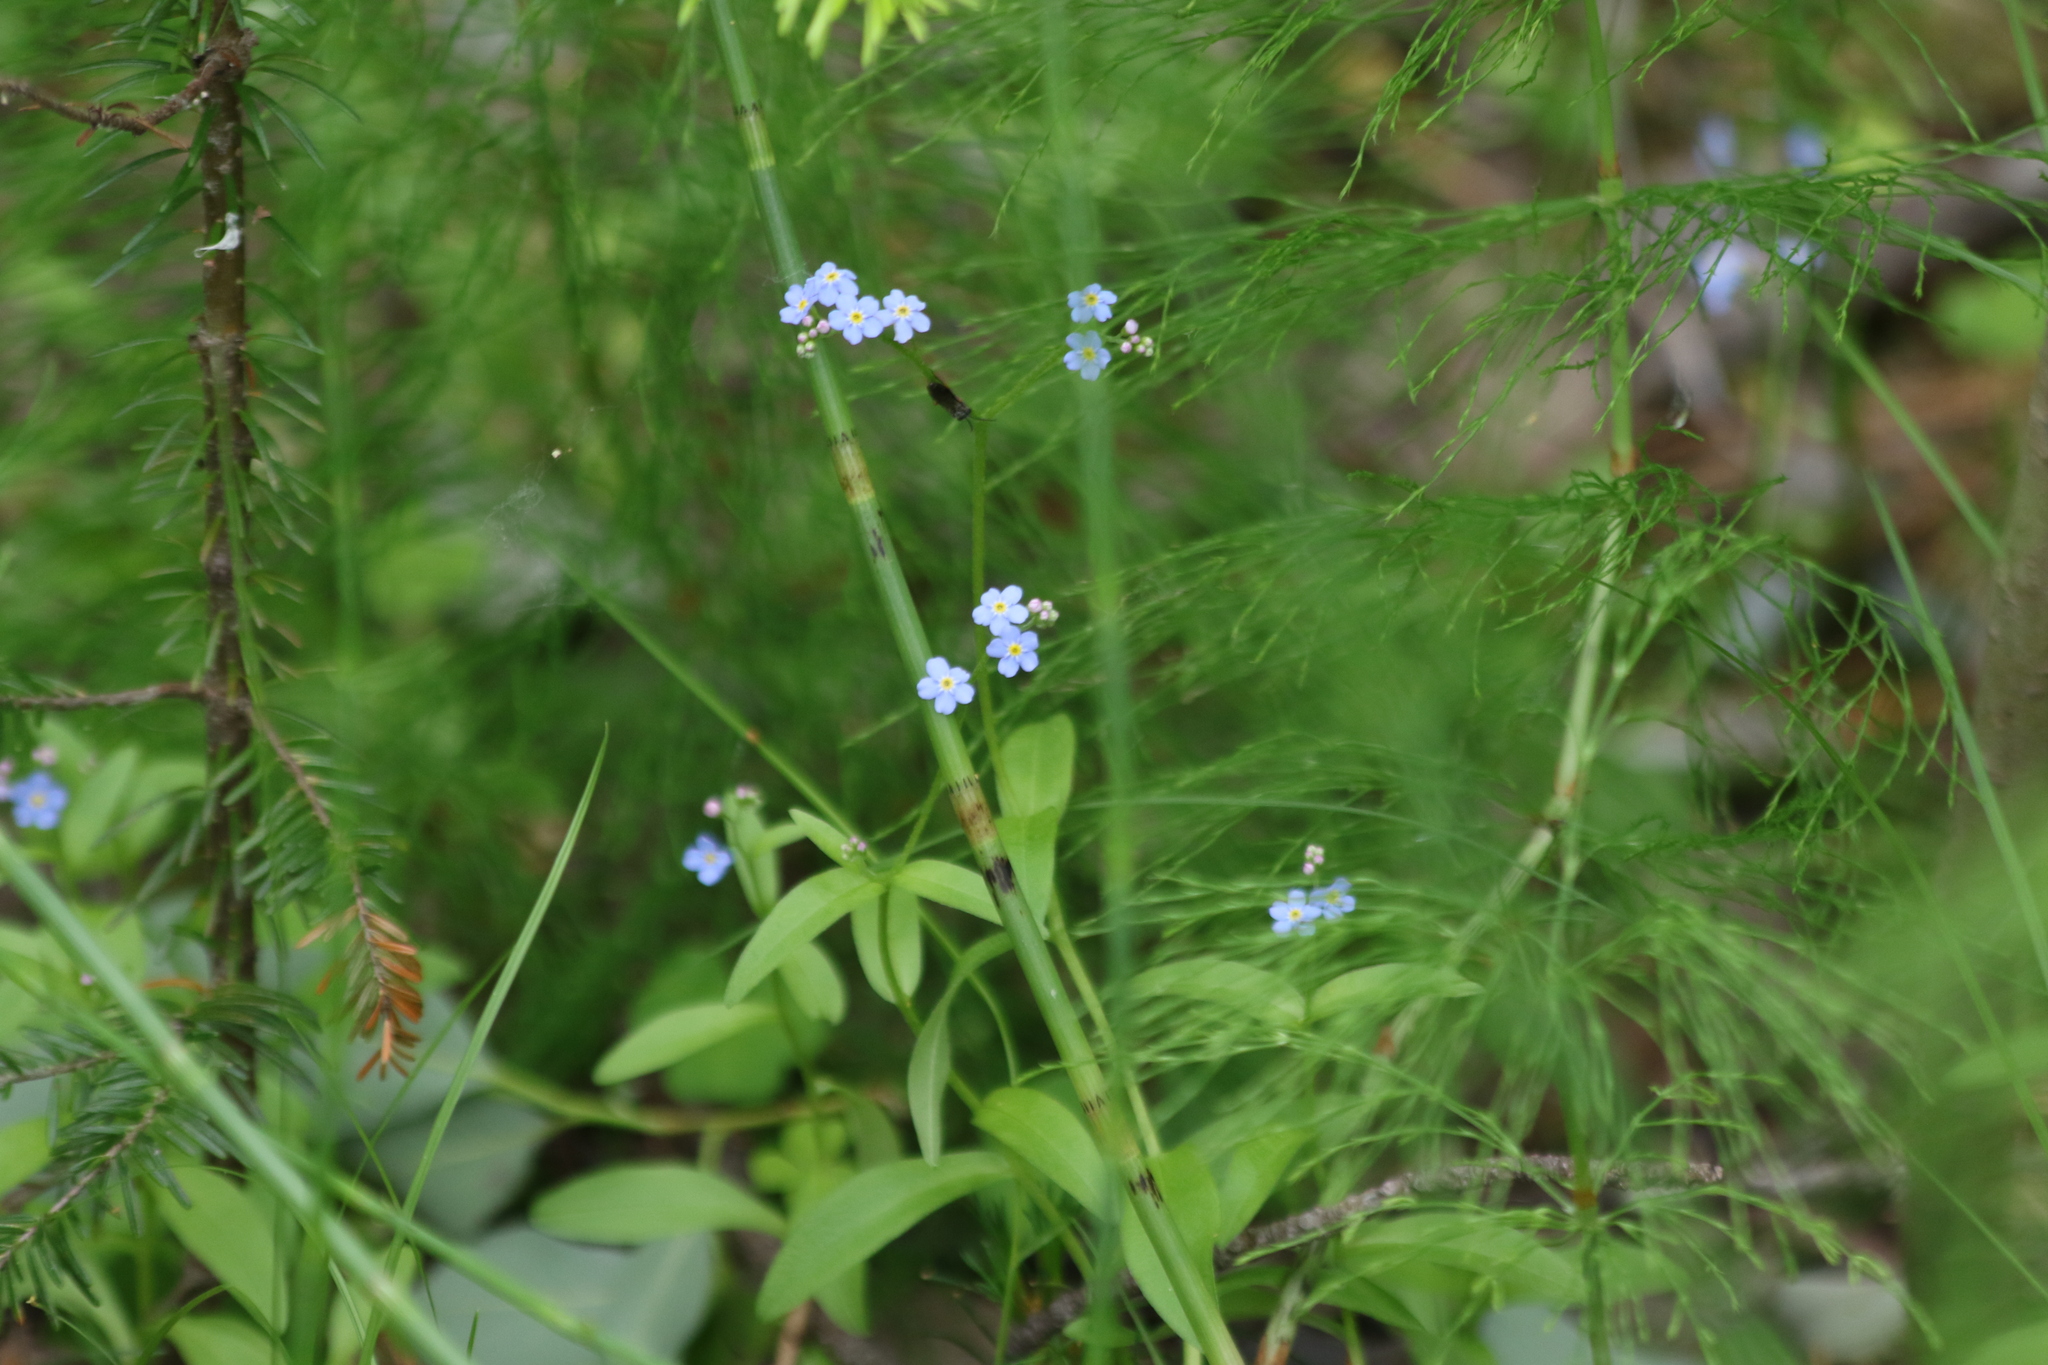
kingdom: Plantae
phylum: Tracheophyta
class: Magnoliopsida
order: Boraginales
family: Boraginaceae
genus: Myosotis
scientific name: Myosotis scorpioides
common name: Water forget-me-not
